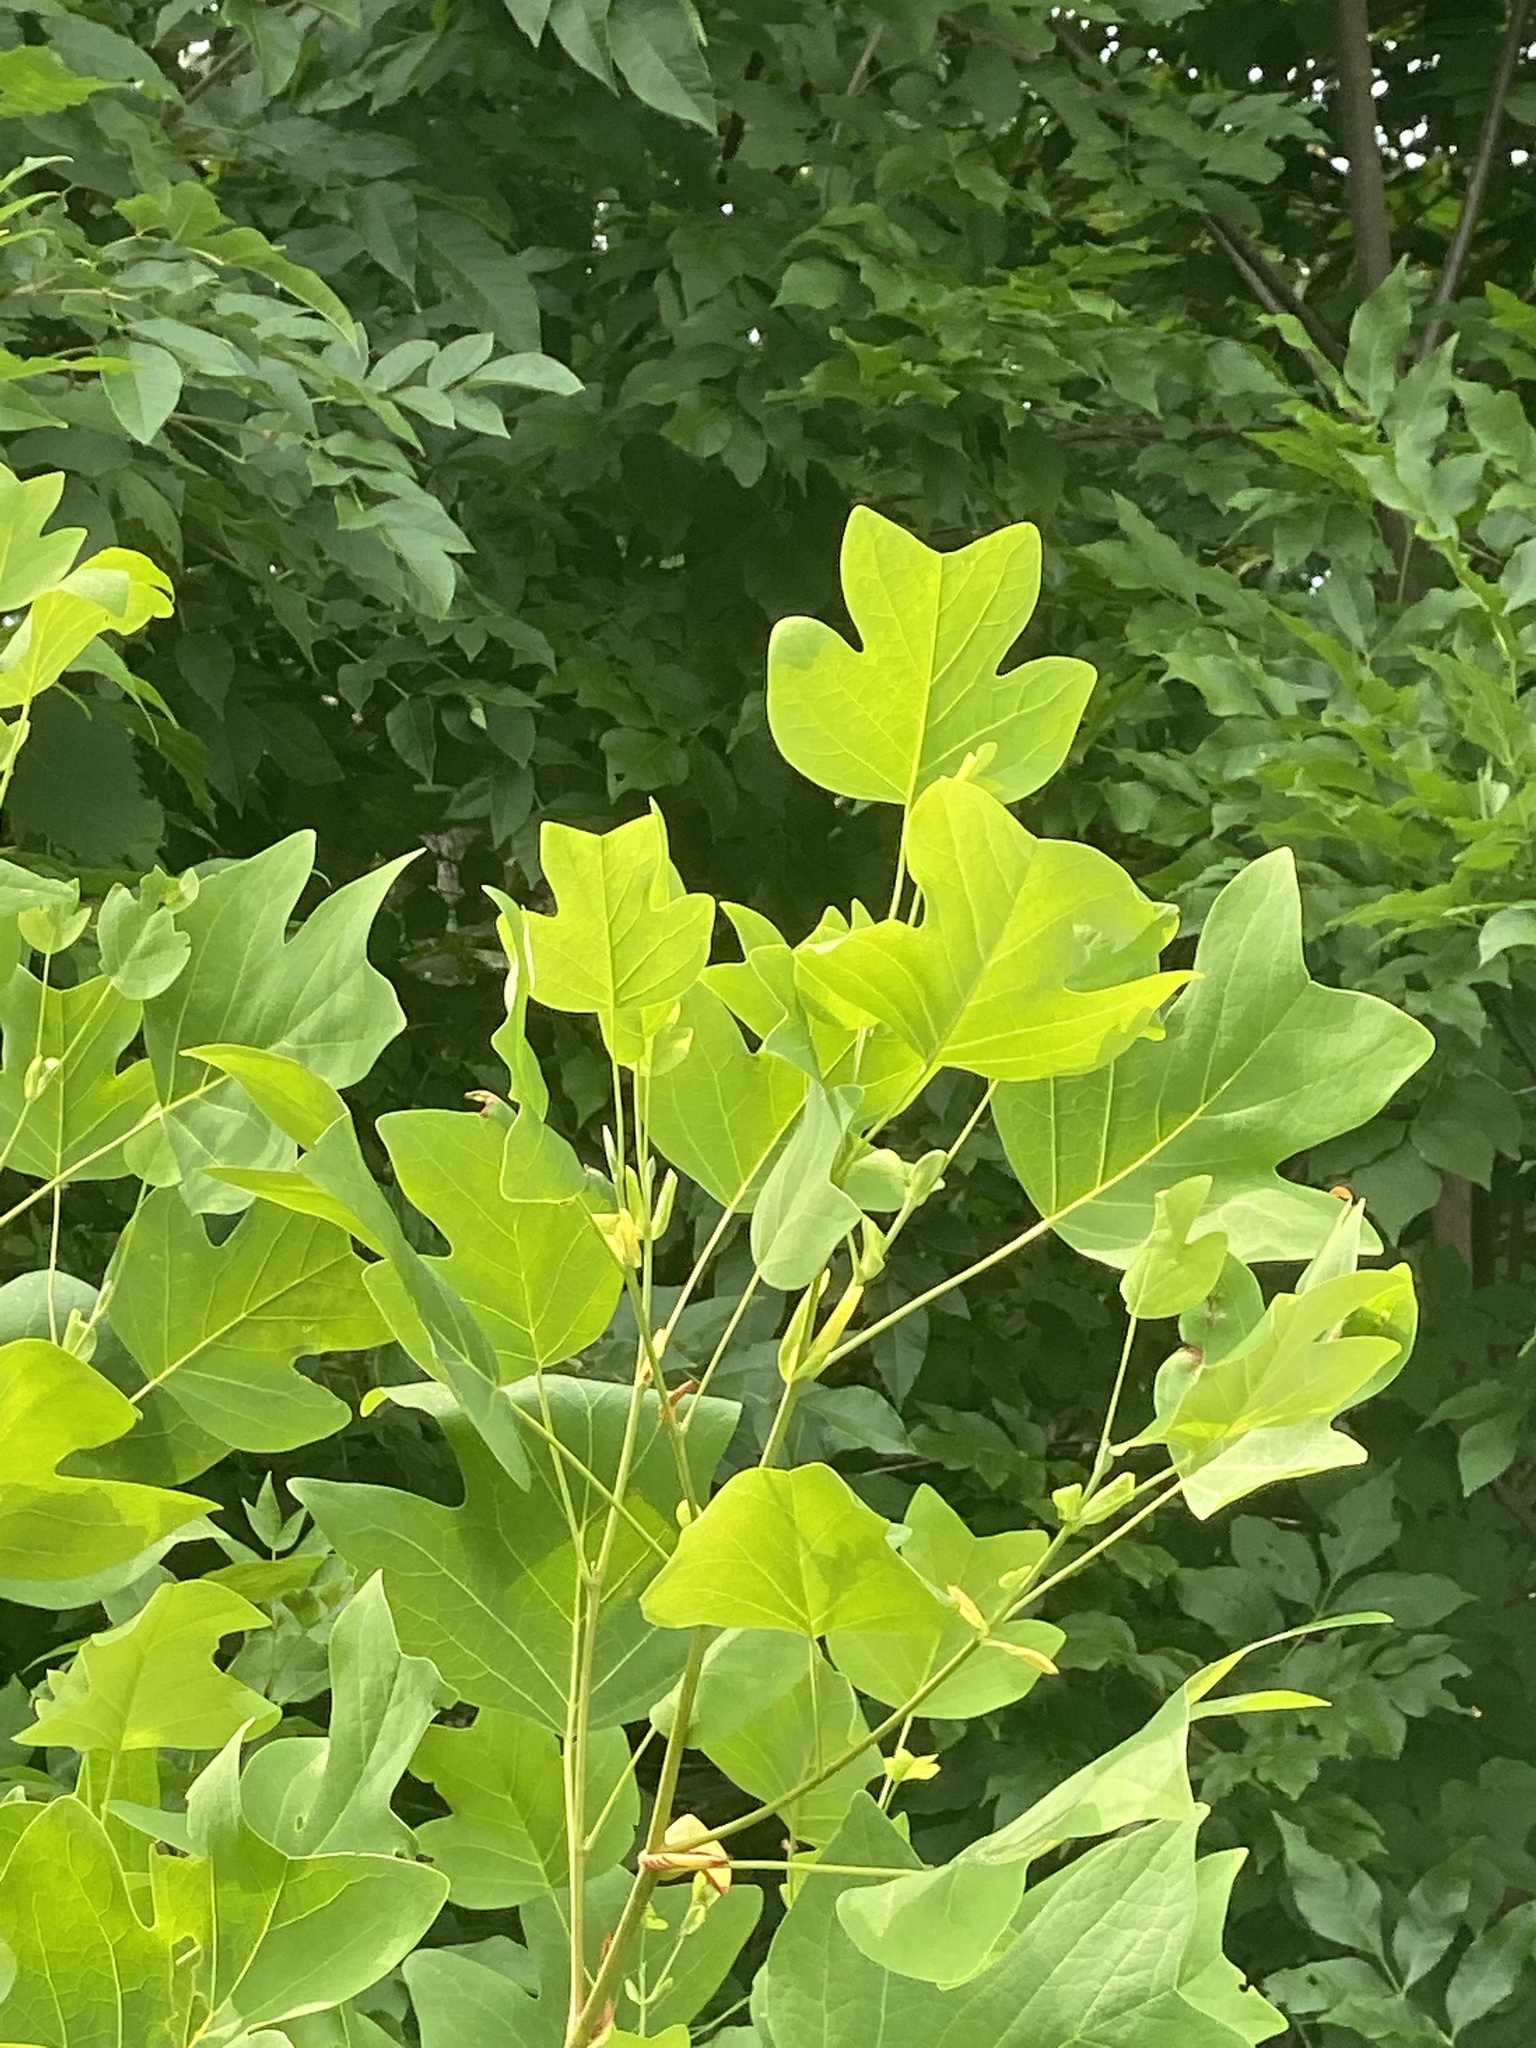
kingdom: Plantae
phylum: Tracheophyta
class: Magnoliopsida
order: Magnoliales
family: Magnoliaceae
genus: Liriodendron
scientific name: Liriodendron tulipifera
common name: Tulip tree
